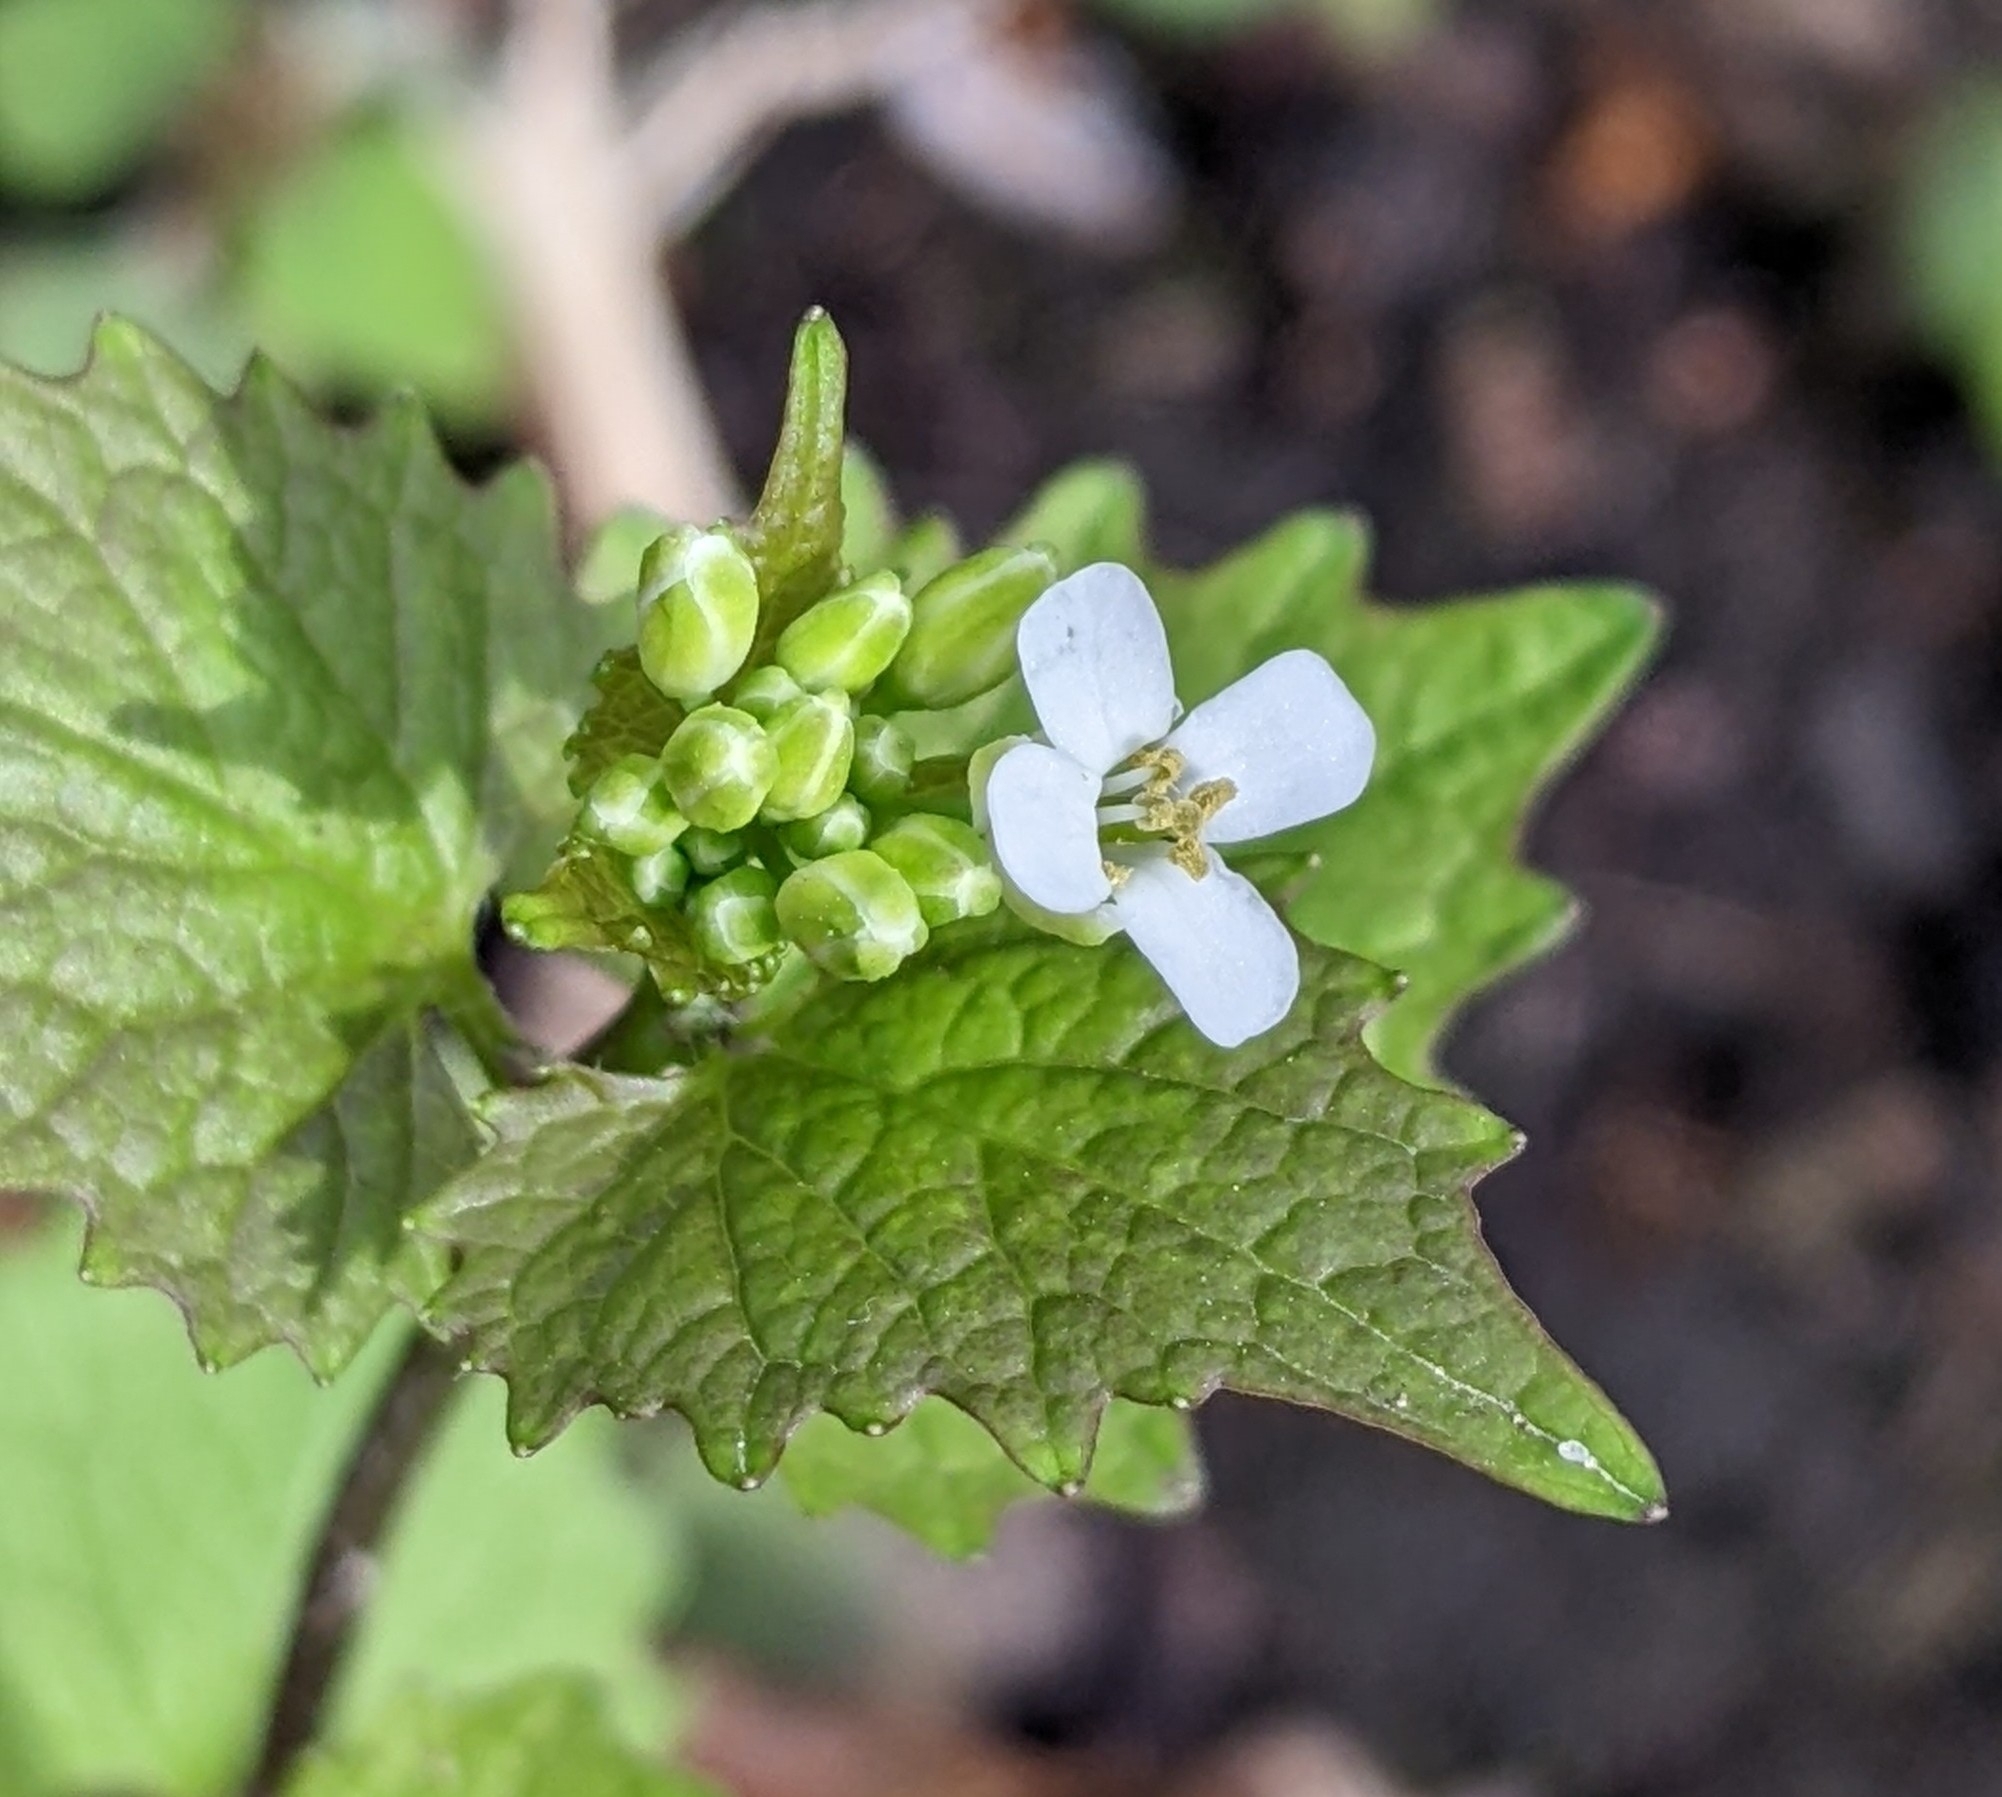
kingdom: Plantae
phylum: Tracheophyta
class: Magnoliopsida
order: Brassicales
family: Brassicaceae
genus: Alliaria
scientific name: Alliaria petiolata
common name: Garlic mustard
